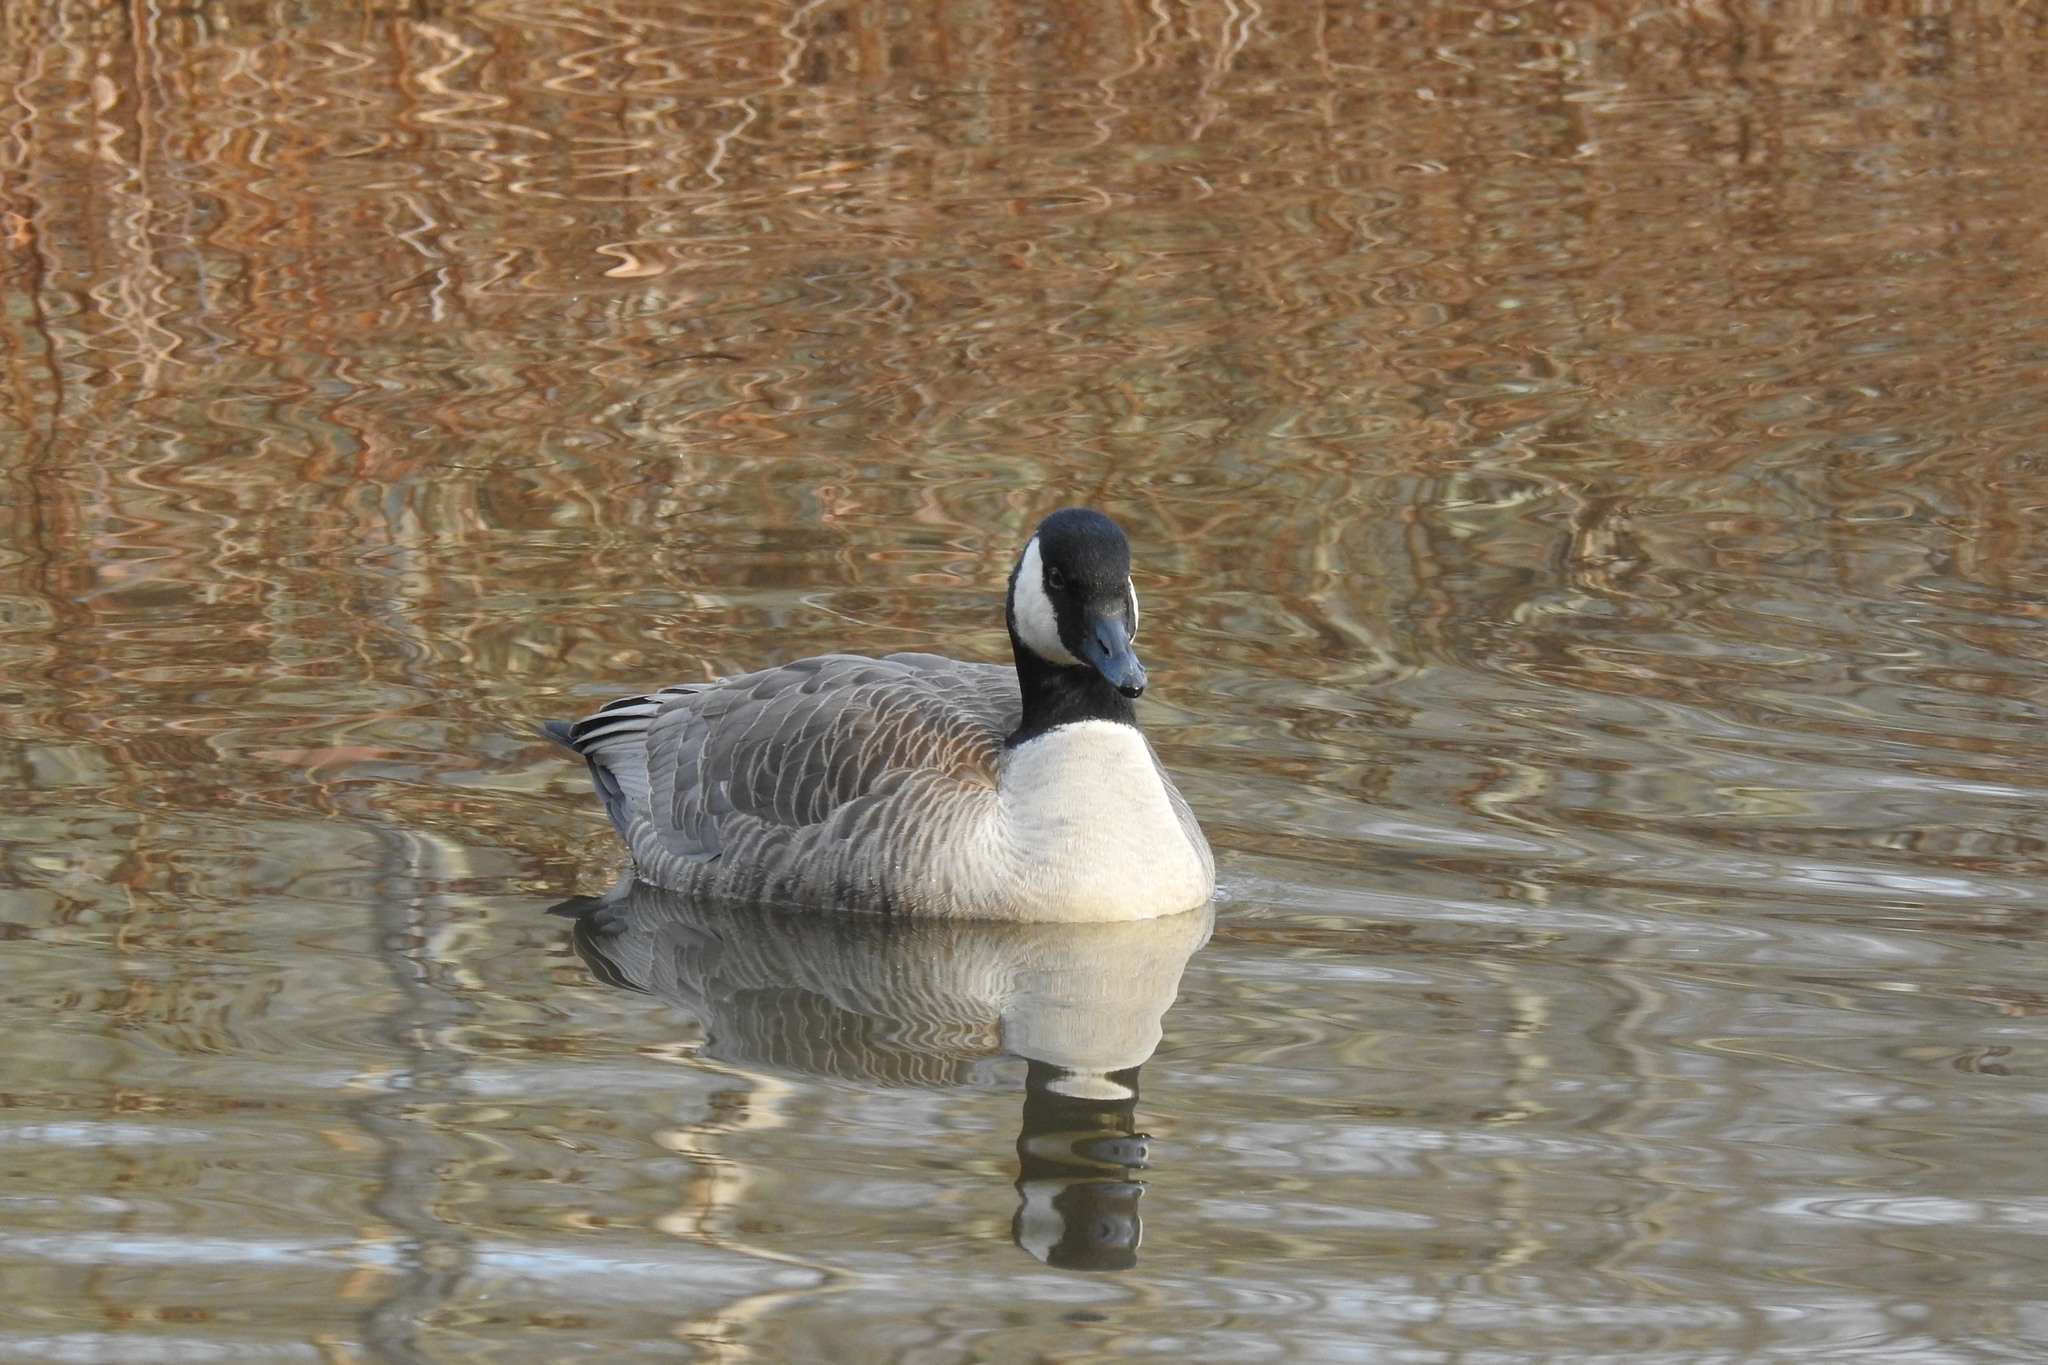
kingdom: Animalia
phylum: Chordata
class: Aves
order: Anseriformes
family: Anatidae
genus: Branta
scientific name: Branta canadensis
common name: Canada goose
